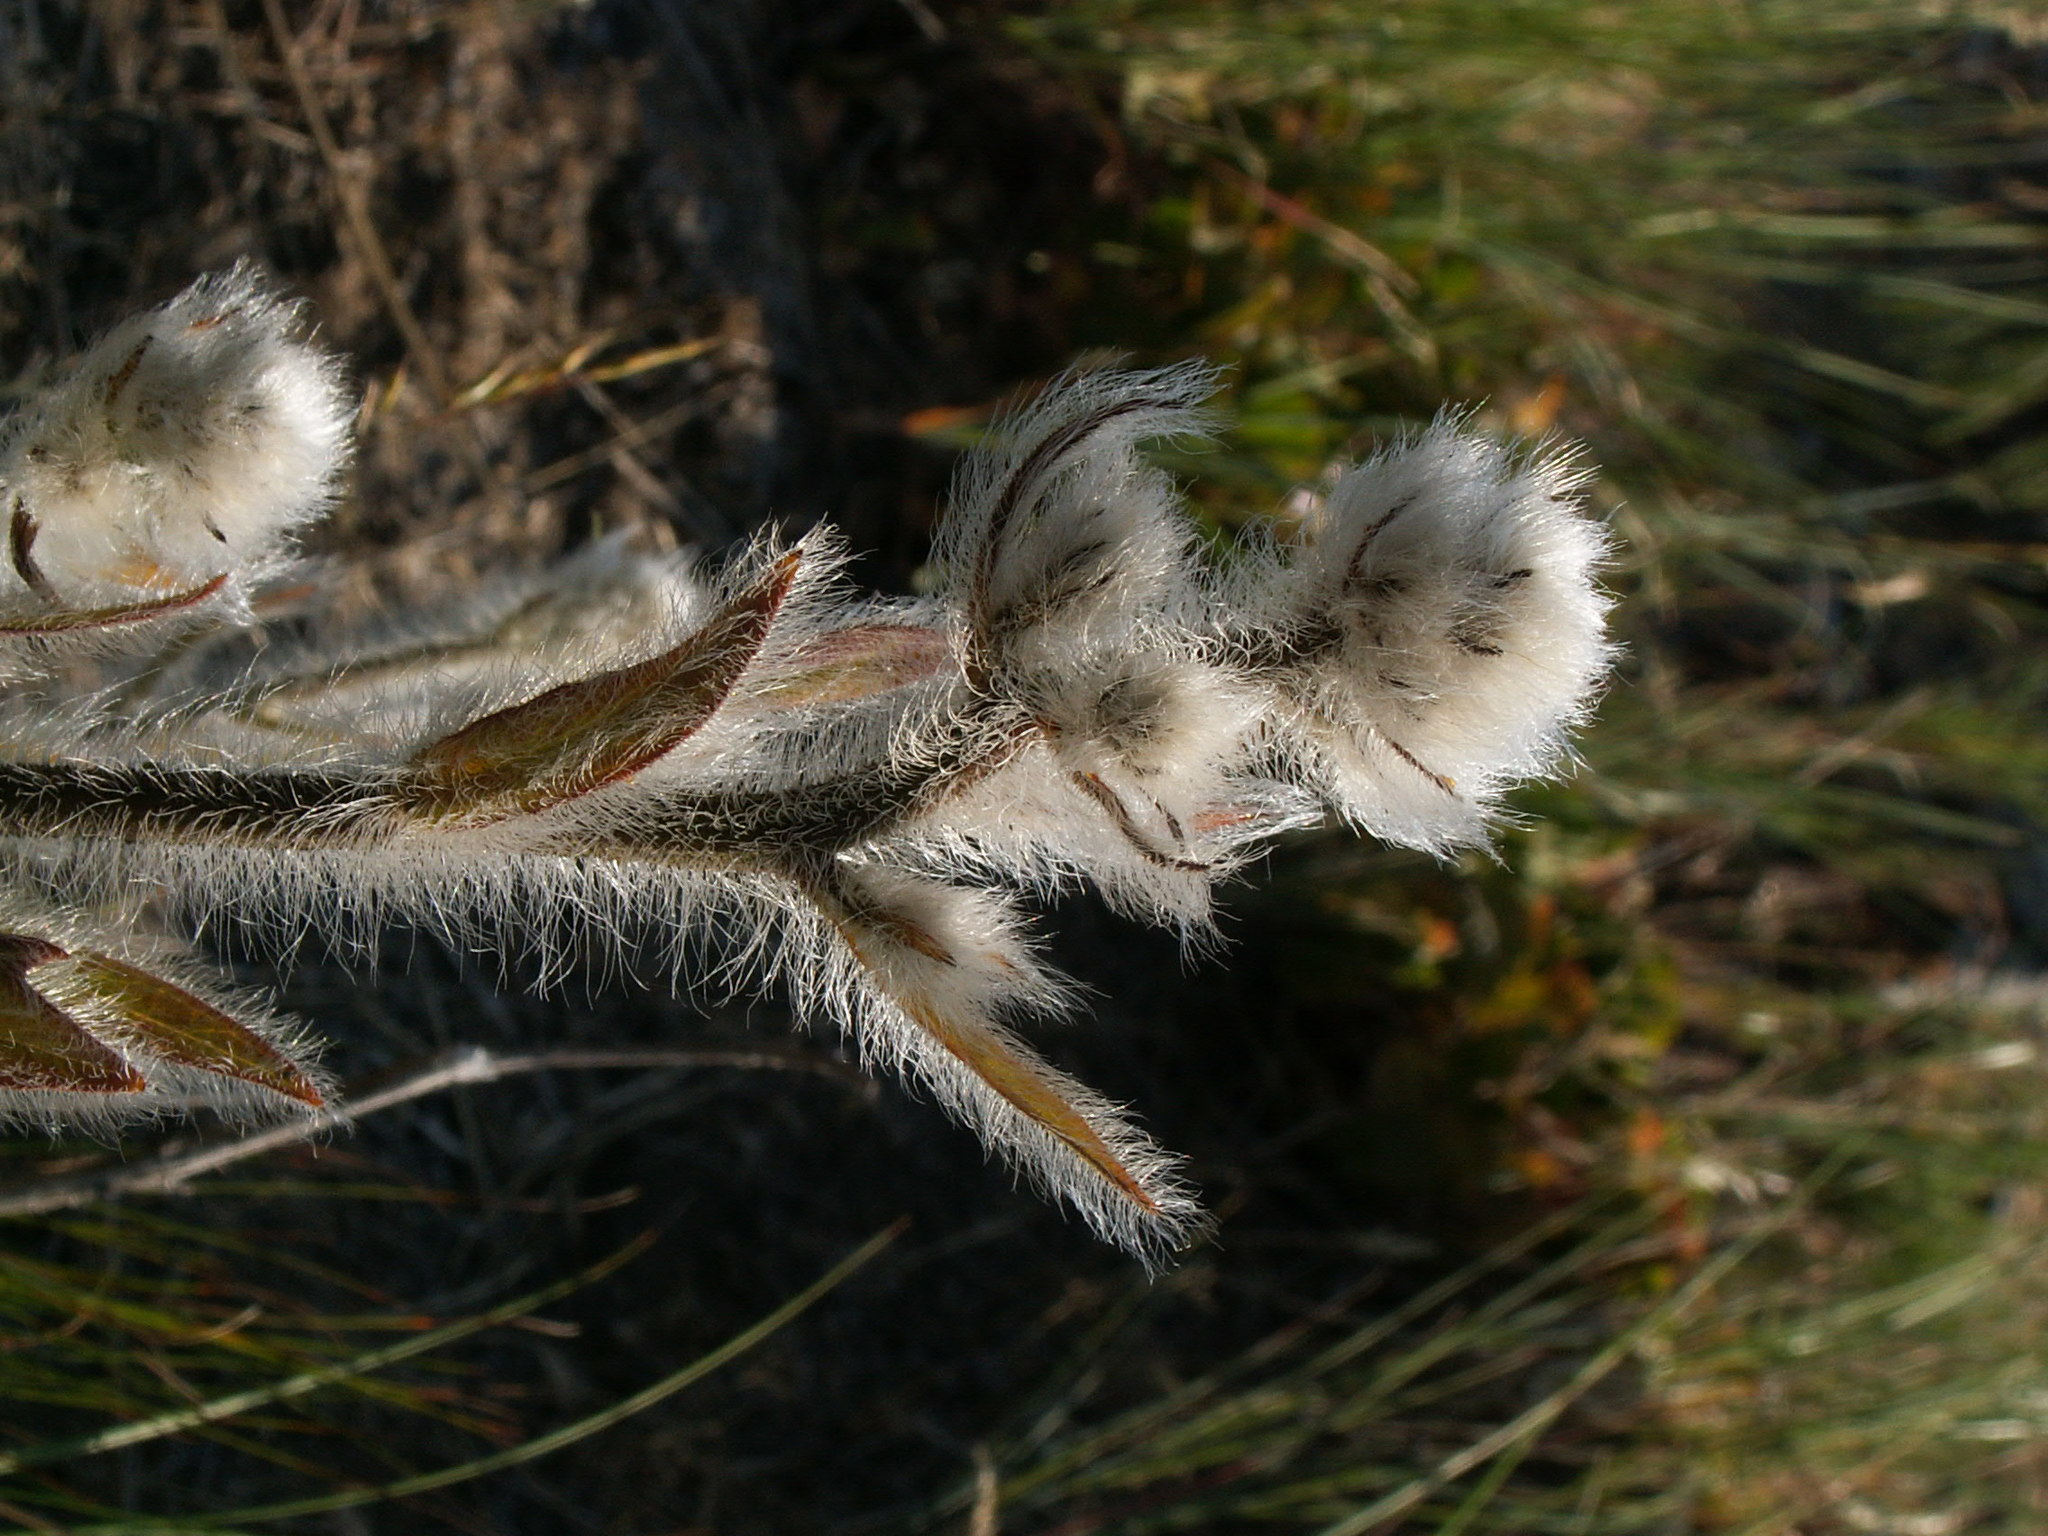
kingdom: Plantae
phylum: Tracheophyta
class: Magnoliopsida
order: Asterales
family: Asteraceae
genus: Hieracium
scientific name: Hieracium scouleri
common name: Hound's-tongue hawkweed
